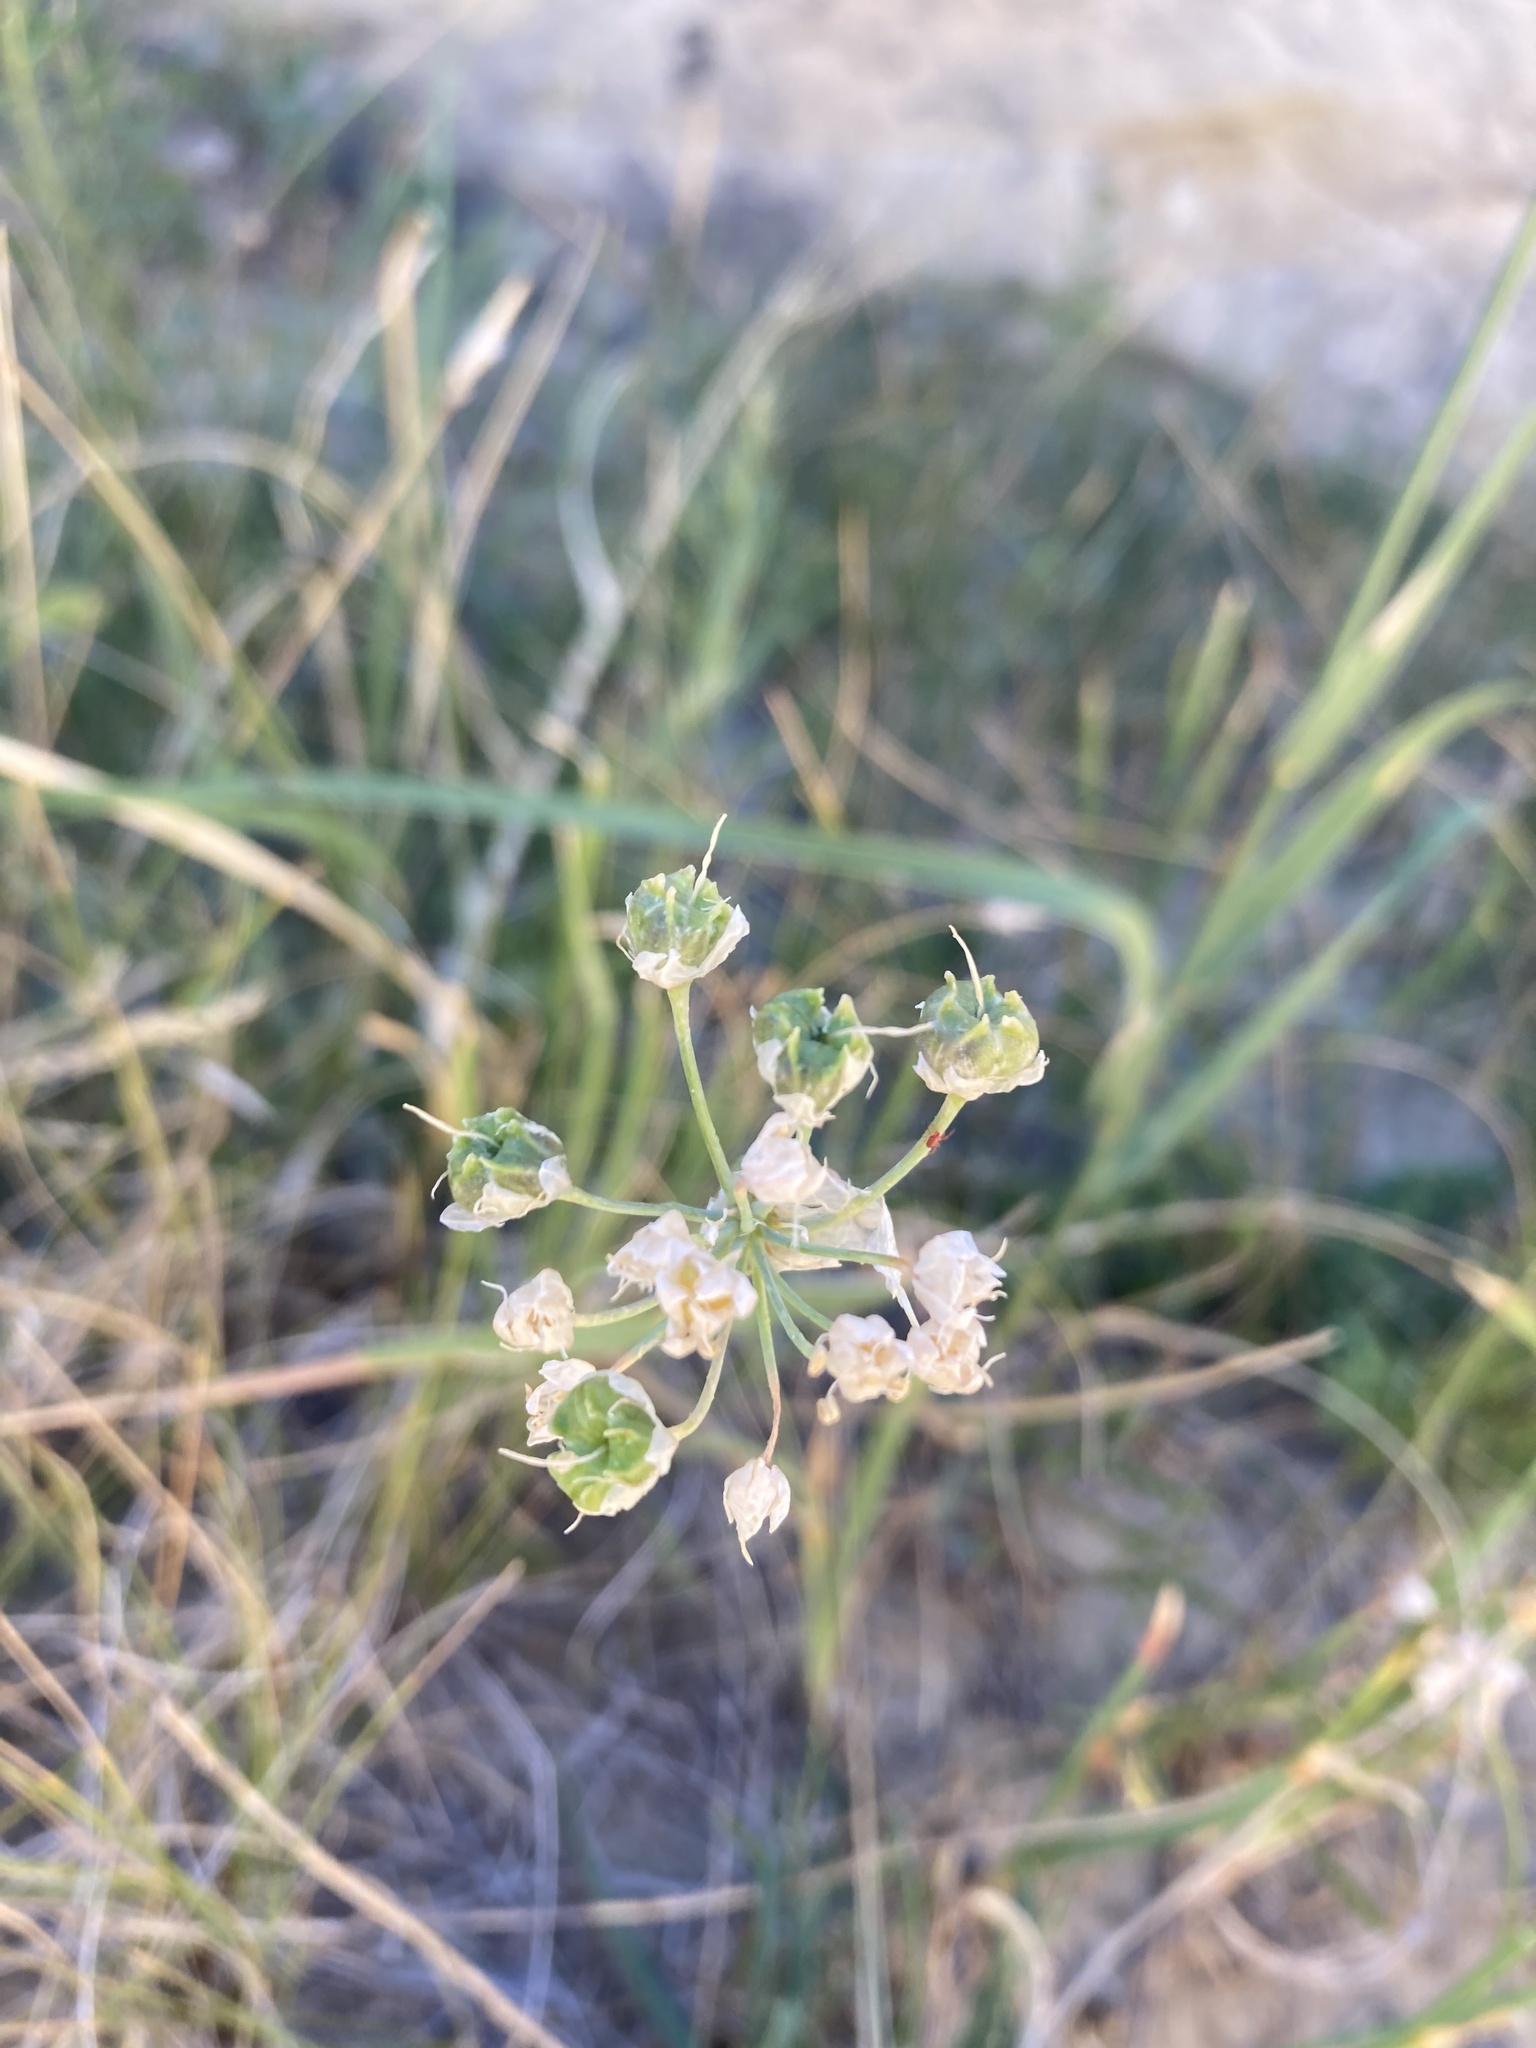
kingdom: Plantae
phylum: Tracheophyta
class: Liliopsida
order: Asparagales
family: Amaryllidaceae
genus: Allium
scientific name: Allium cernuum
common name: Nodding onion
